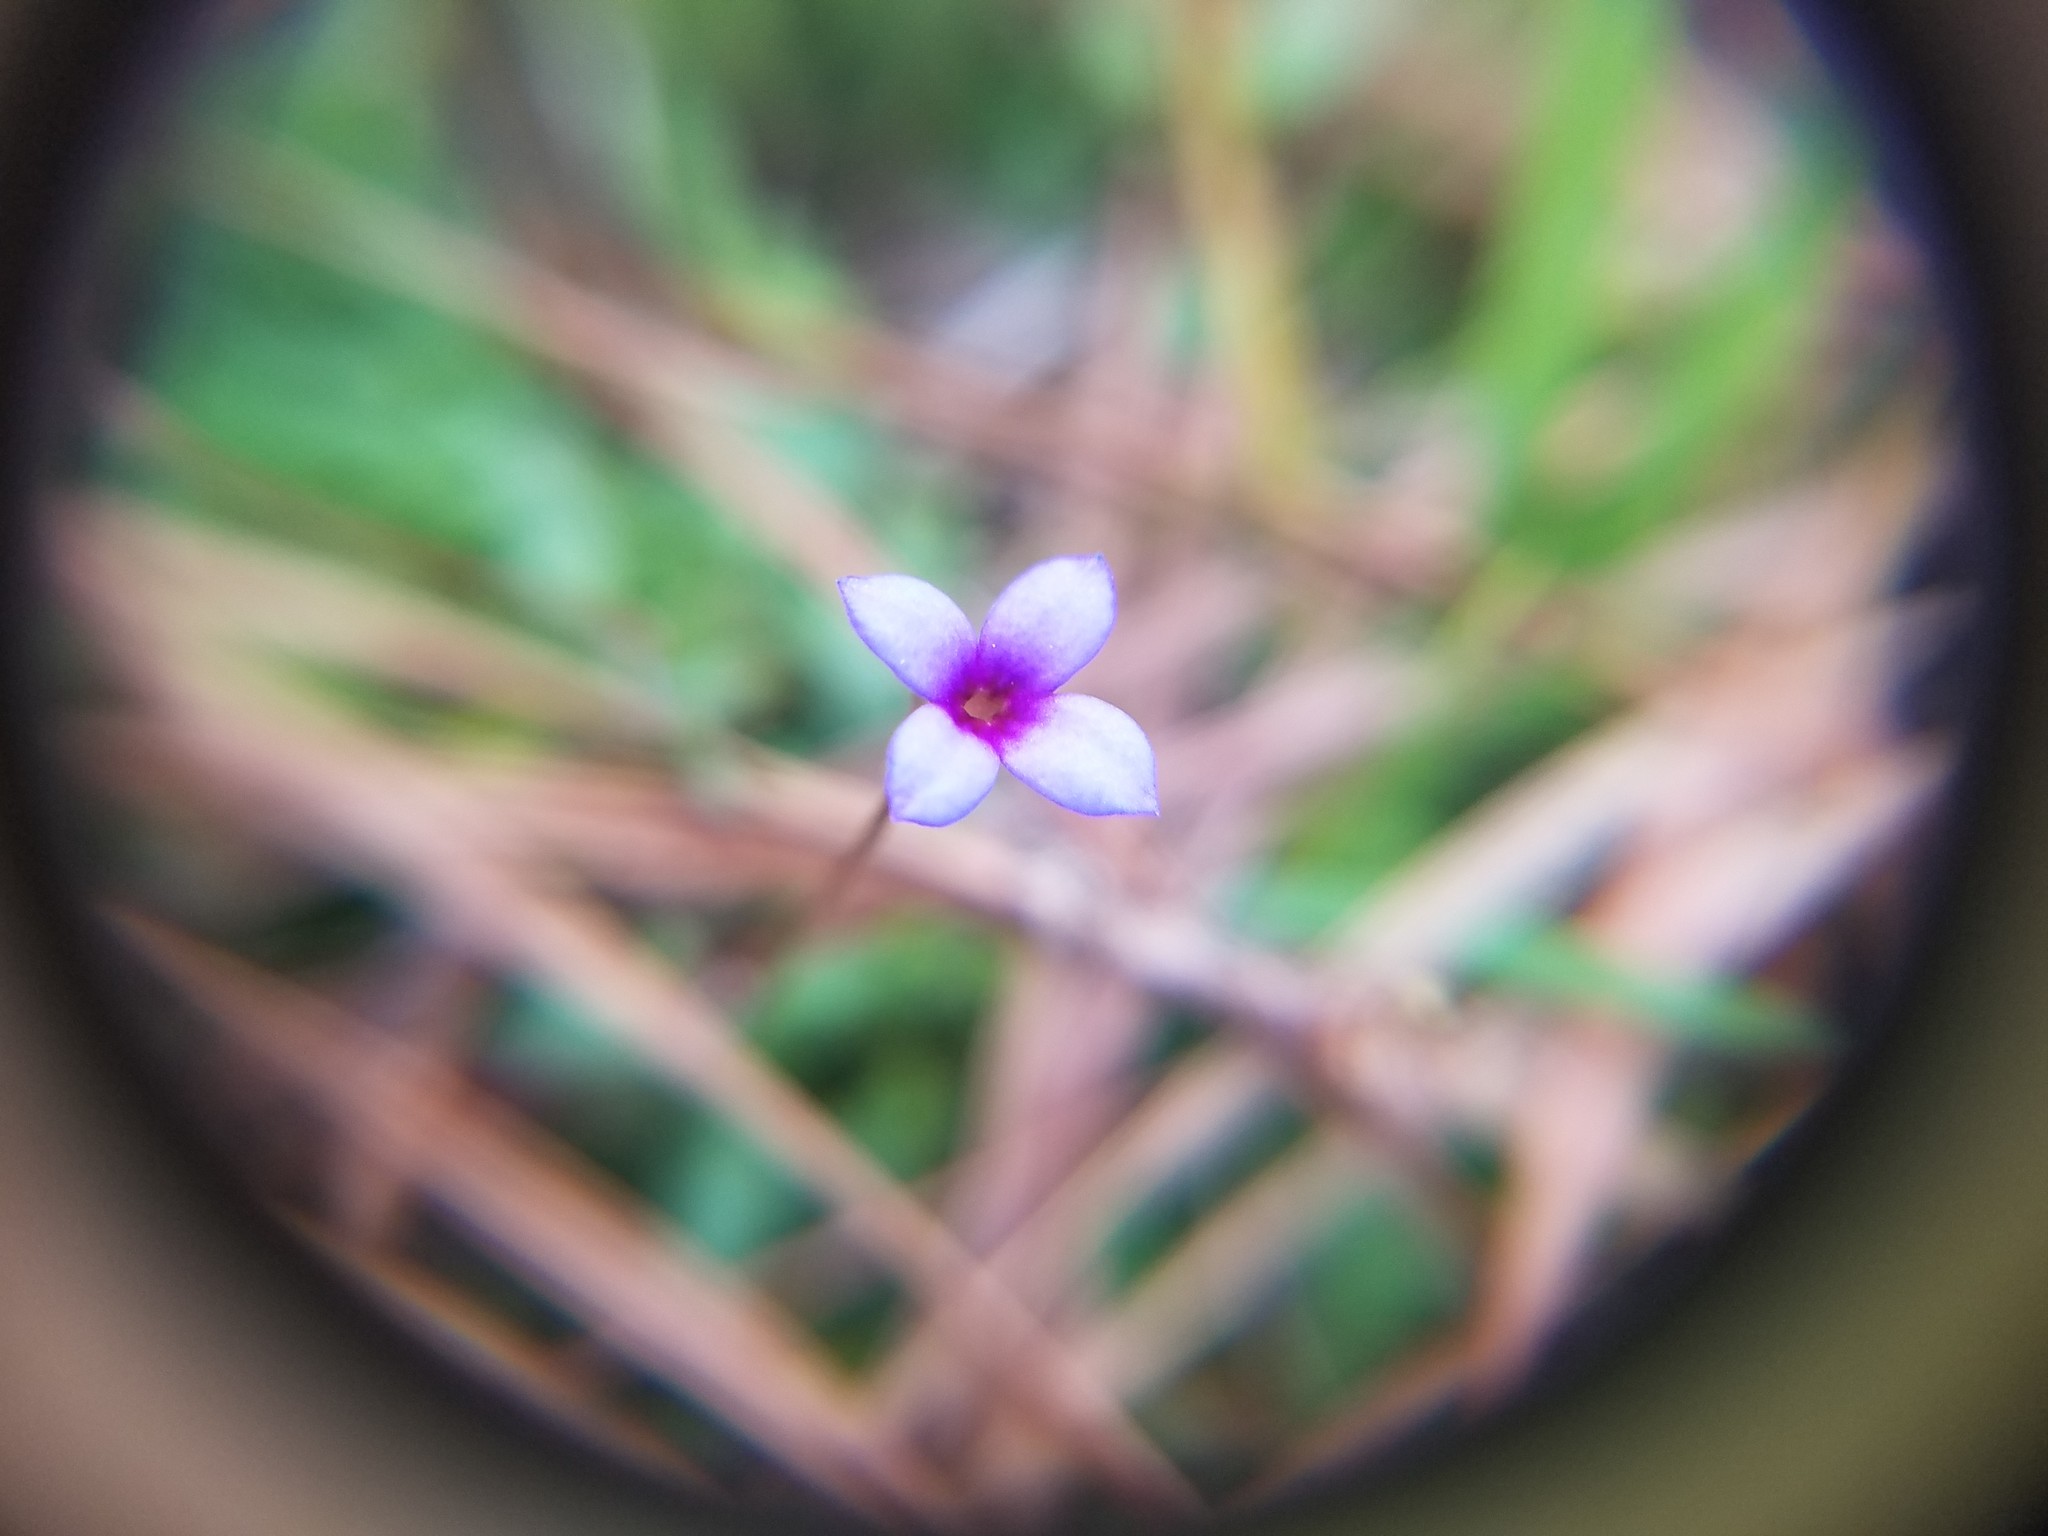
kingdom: Plantae
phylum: Tracheophyta
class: Magnoliopsida
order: Gentianales
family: Rubiaceae
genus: Houstonia
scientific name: Houstonia pusilla
